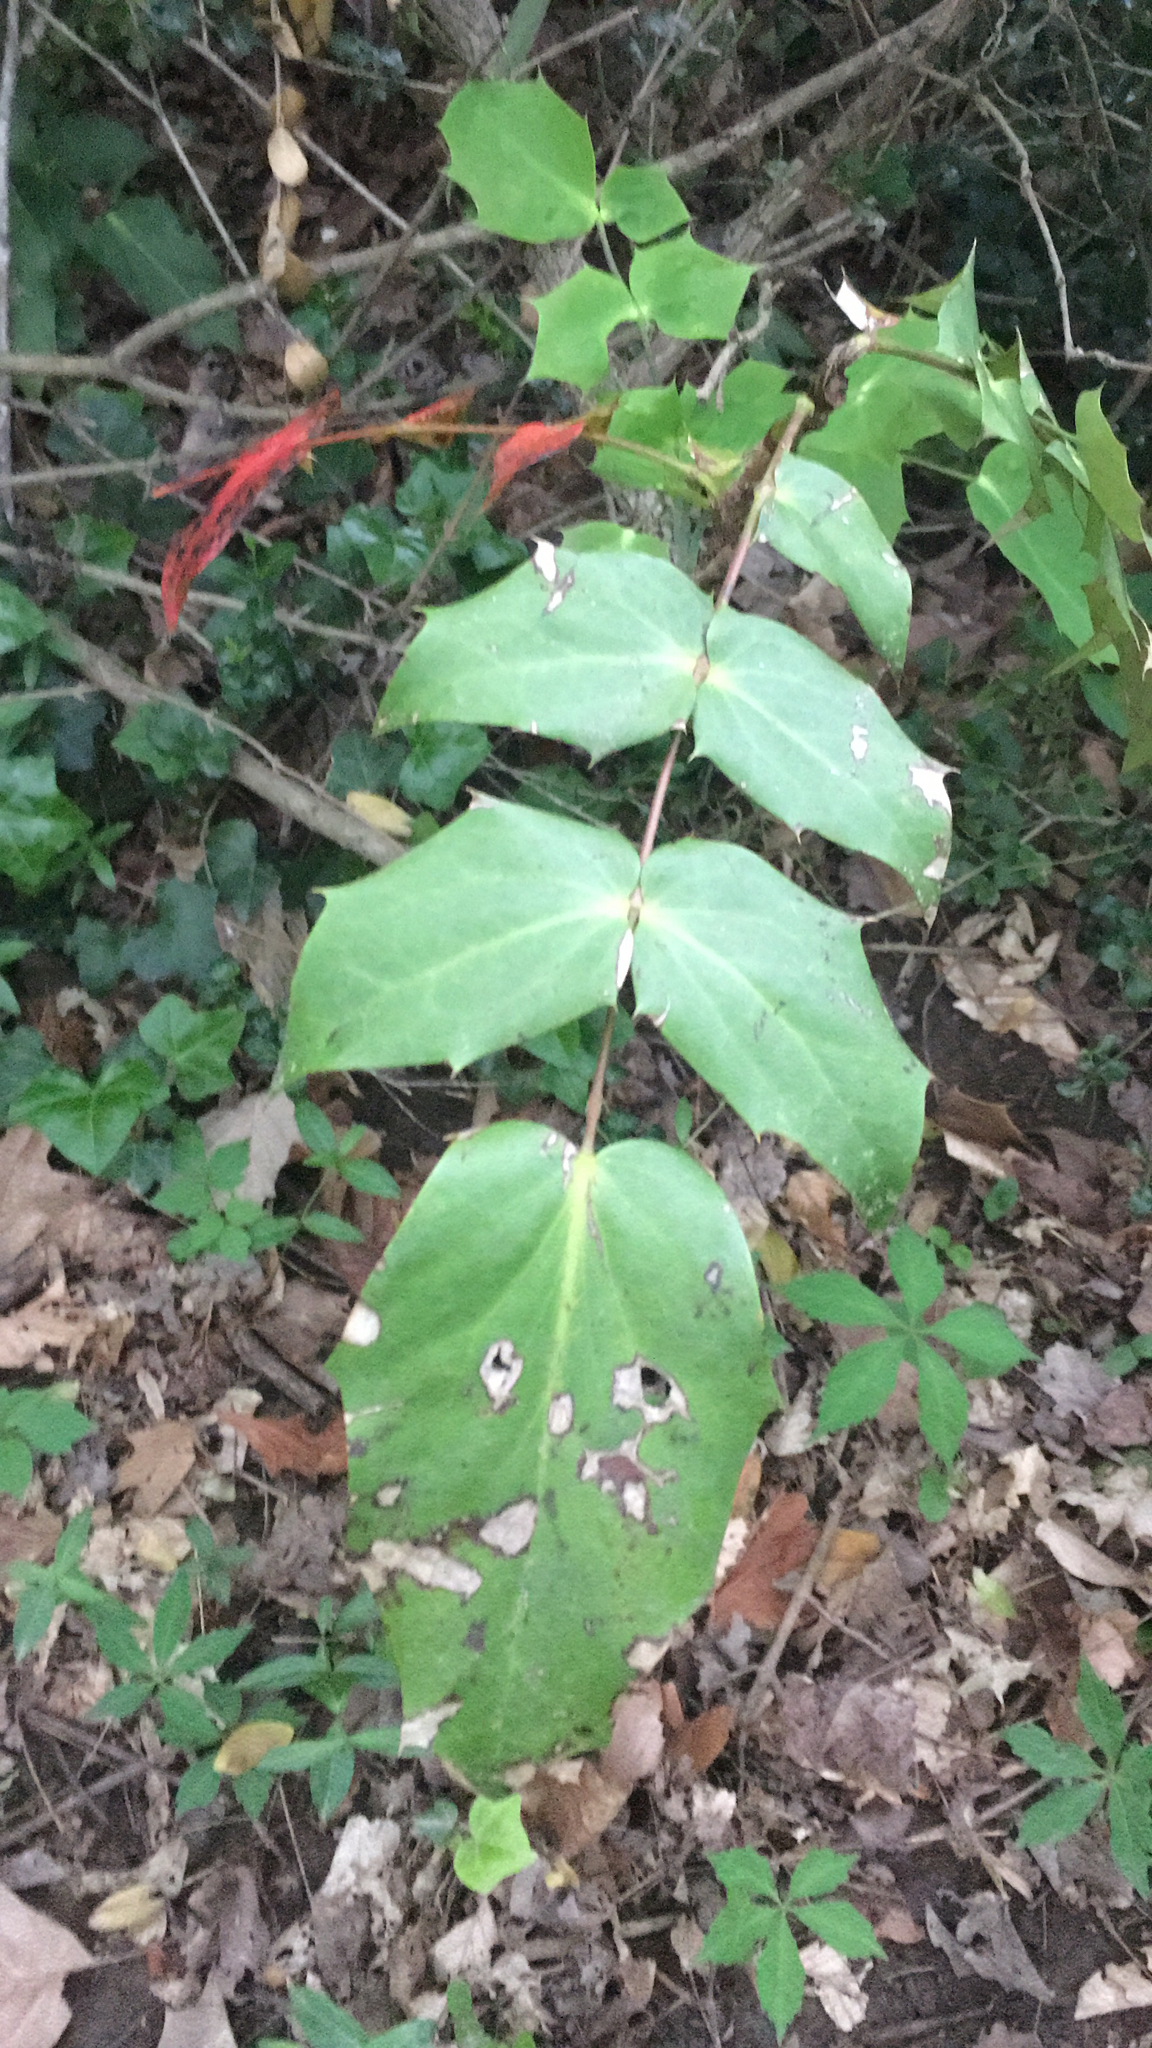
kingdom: Plantae
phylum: Tracheophyta
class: Magnoliopsida
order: Ranunculales
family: Berberidaceae
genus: Mahonia
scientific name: Mahonia bealei
